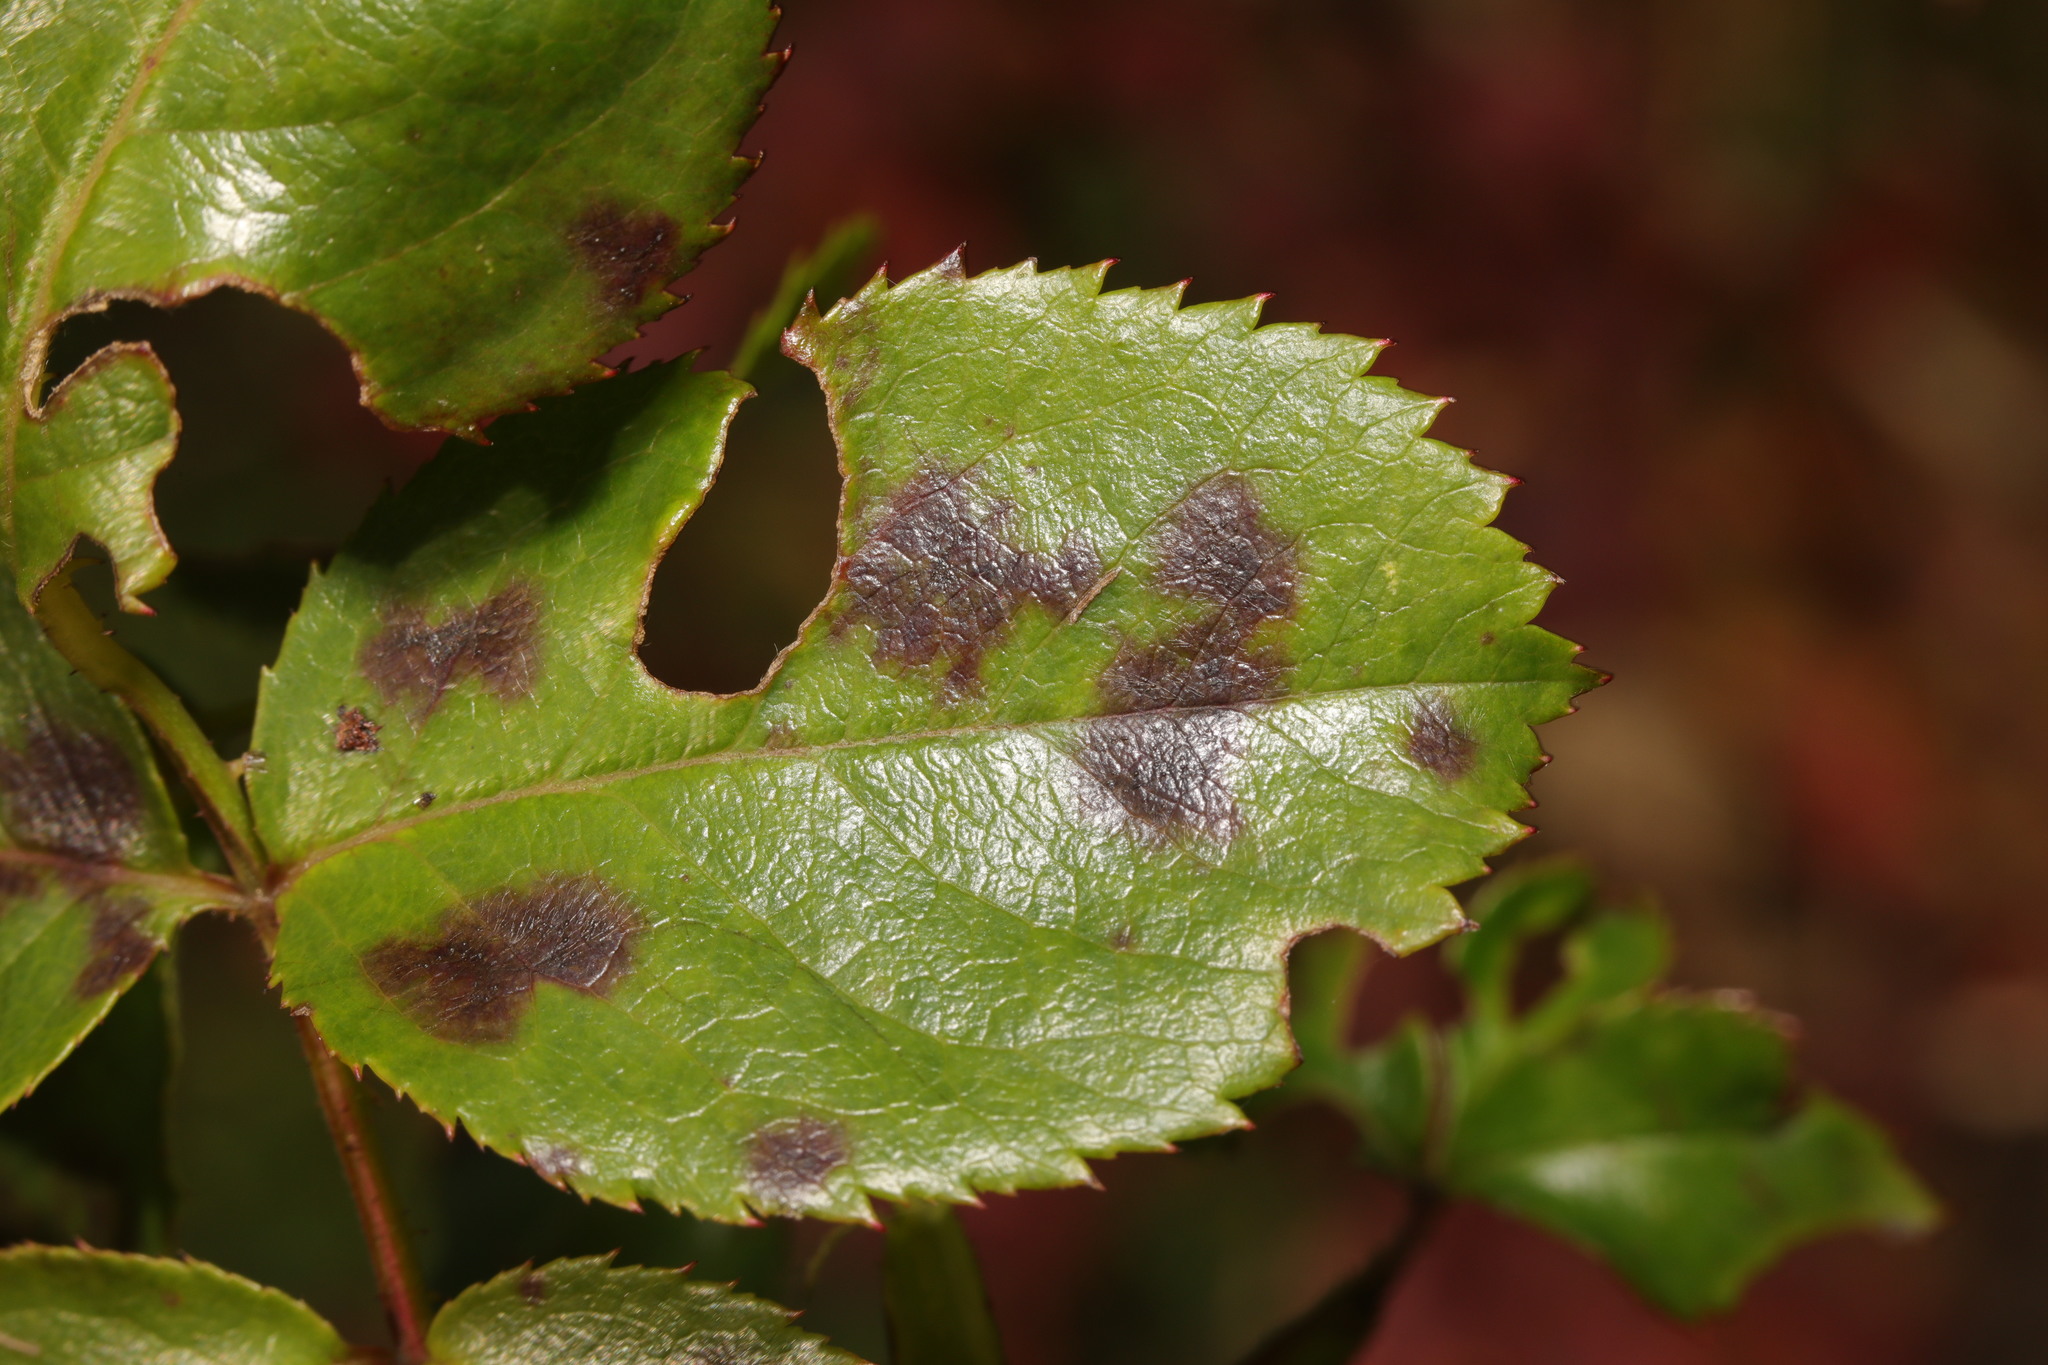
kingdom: Fungi
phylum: Ascomycota
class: Leotiomycetes
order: Helotiales
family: Drepanopezizaceae
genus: Diplocarpon
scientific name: Diplocarpon rosae
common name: Rose black-spot
